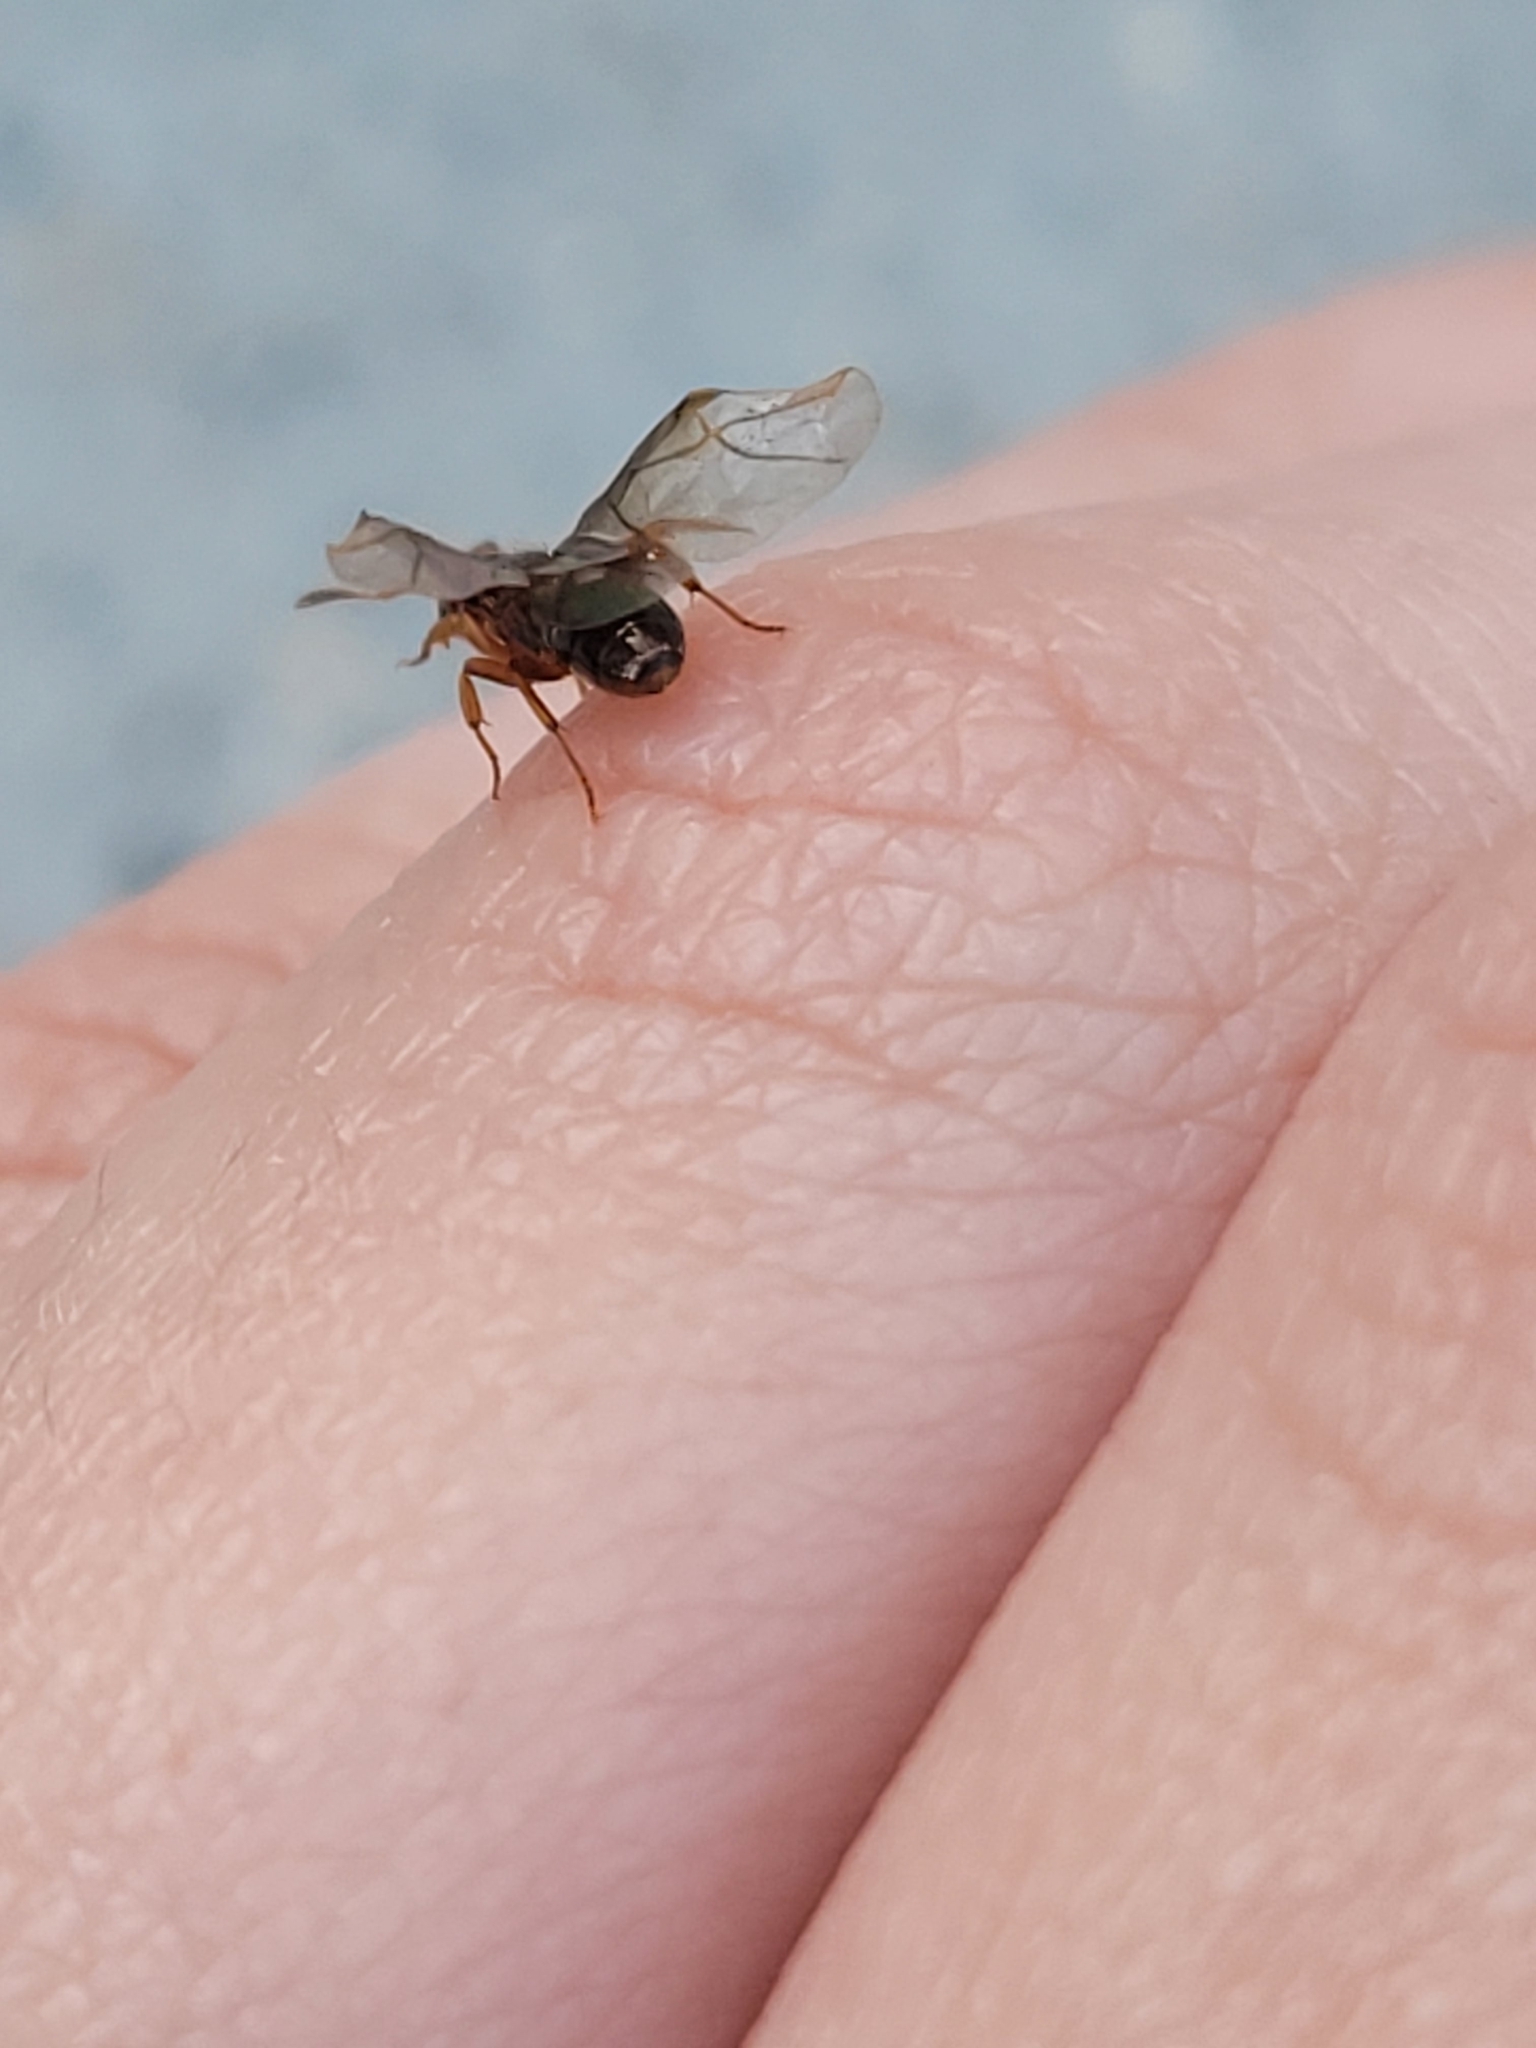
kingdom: Animalia
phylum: Arthropoda
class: Insecta
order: Hymenoptera
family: Formicidae
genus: Lasius
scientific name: Lasius claviger
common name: Common citronella ant
